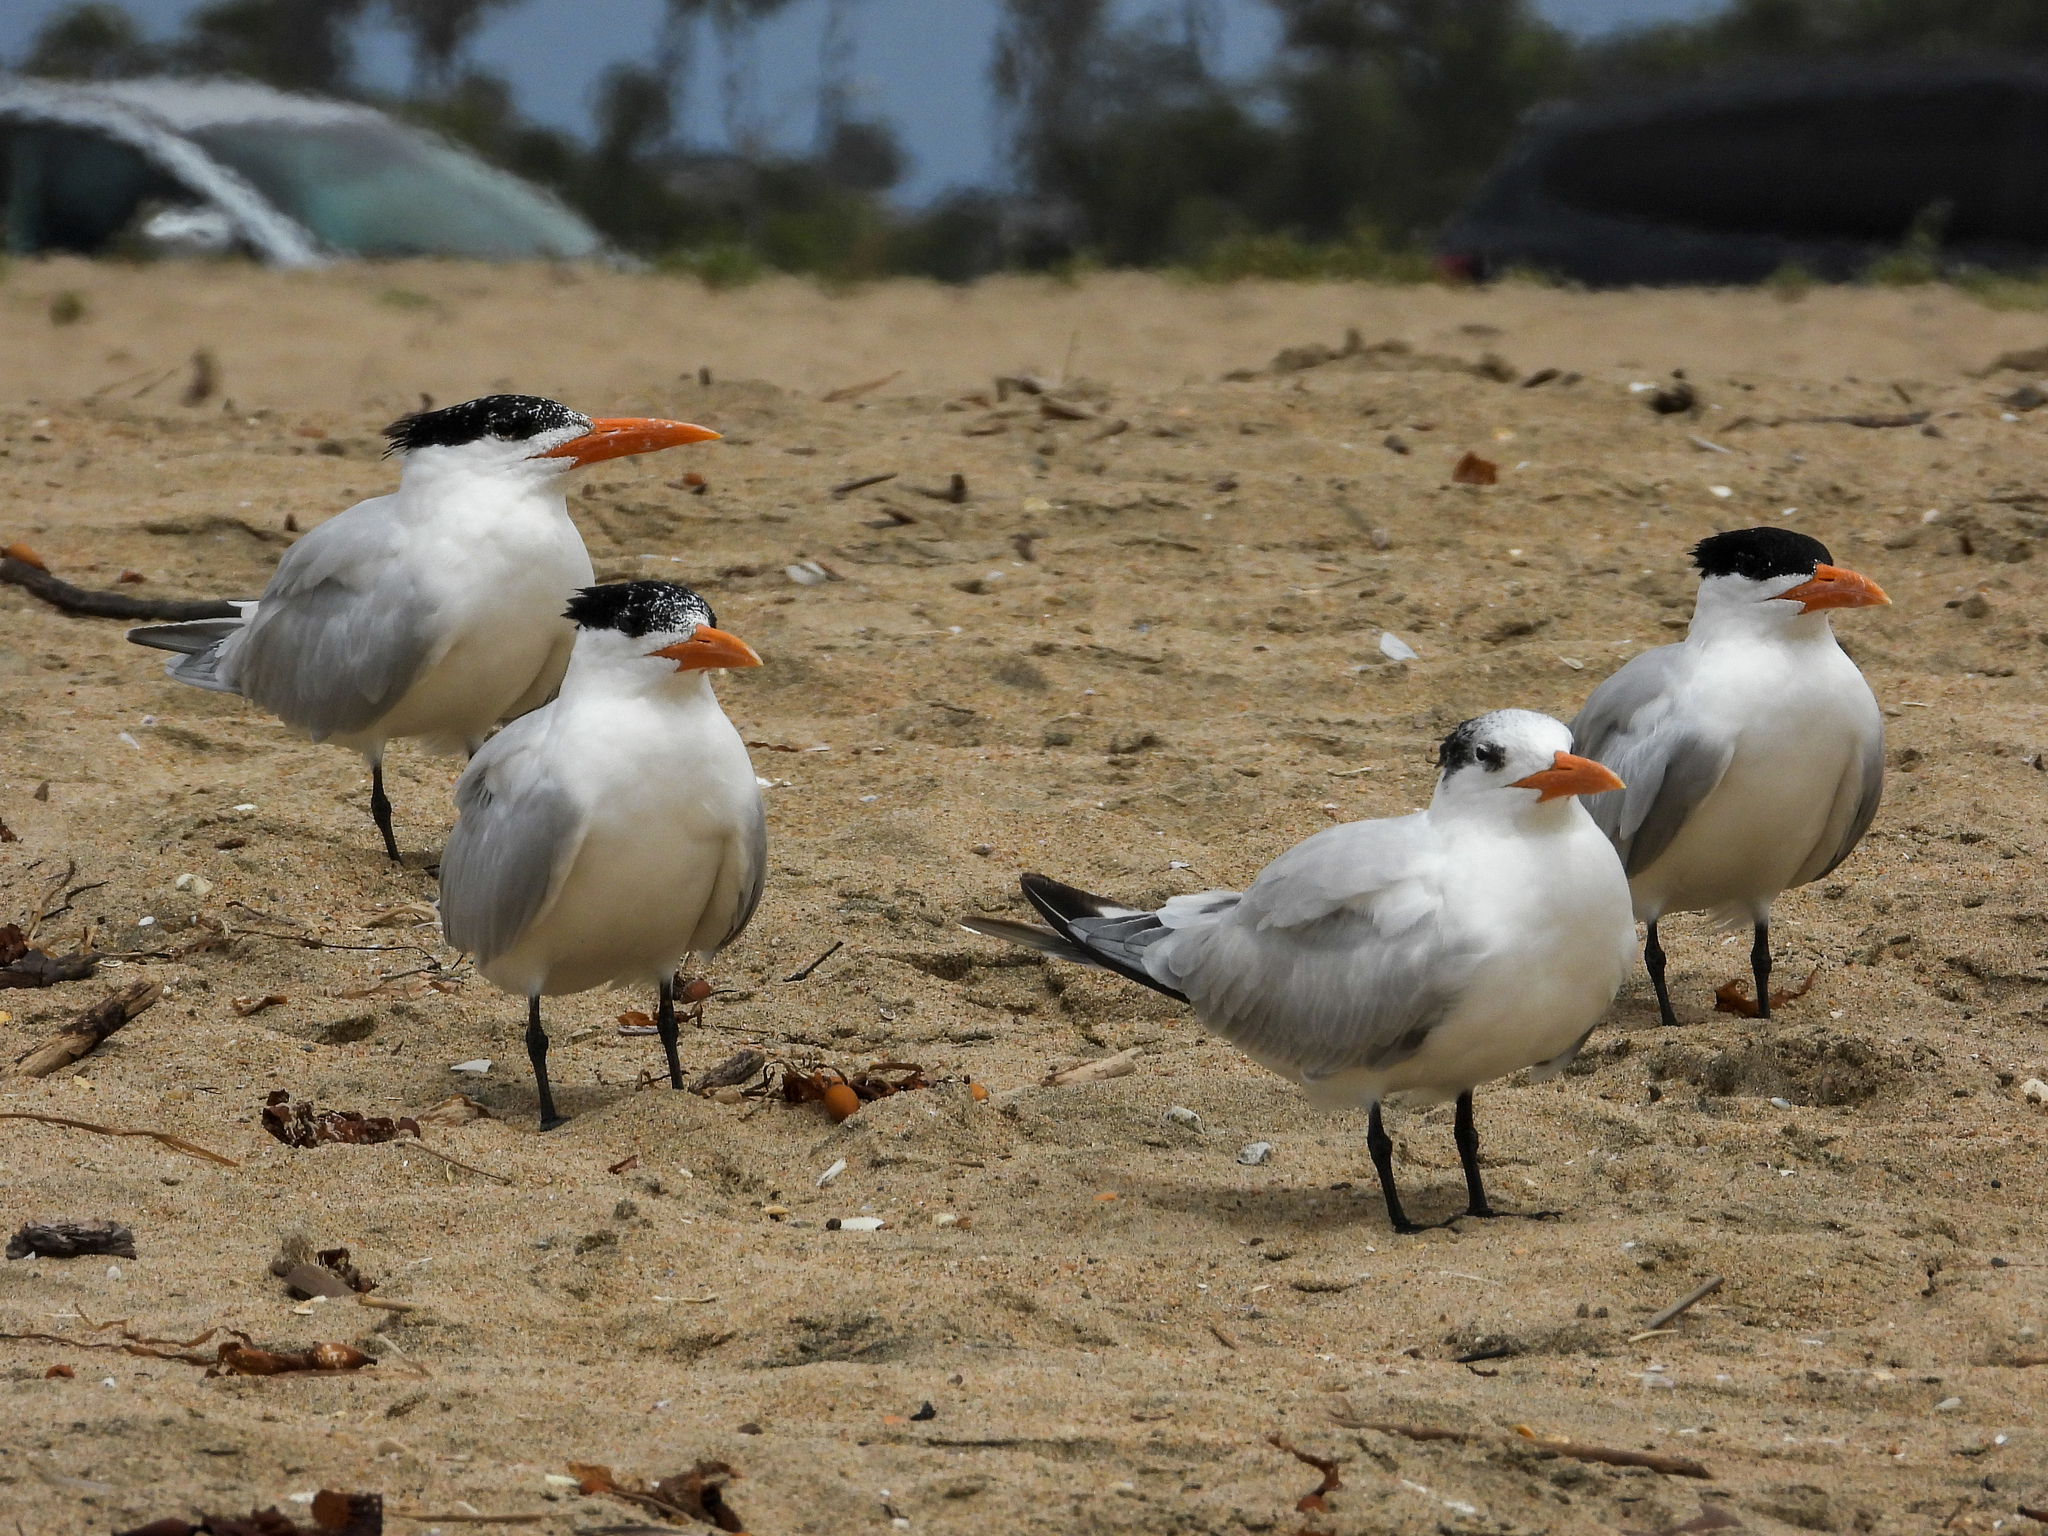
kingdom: Animalia
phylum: Chordata
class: Aves
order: Charadriiformes
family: Laridae
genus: Thalasseus
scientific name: Thalasseus maximus
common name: Royal tern
